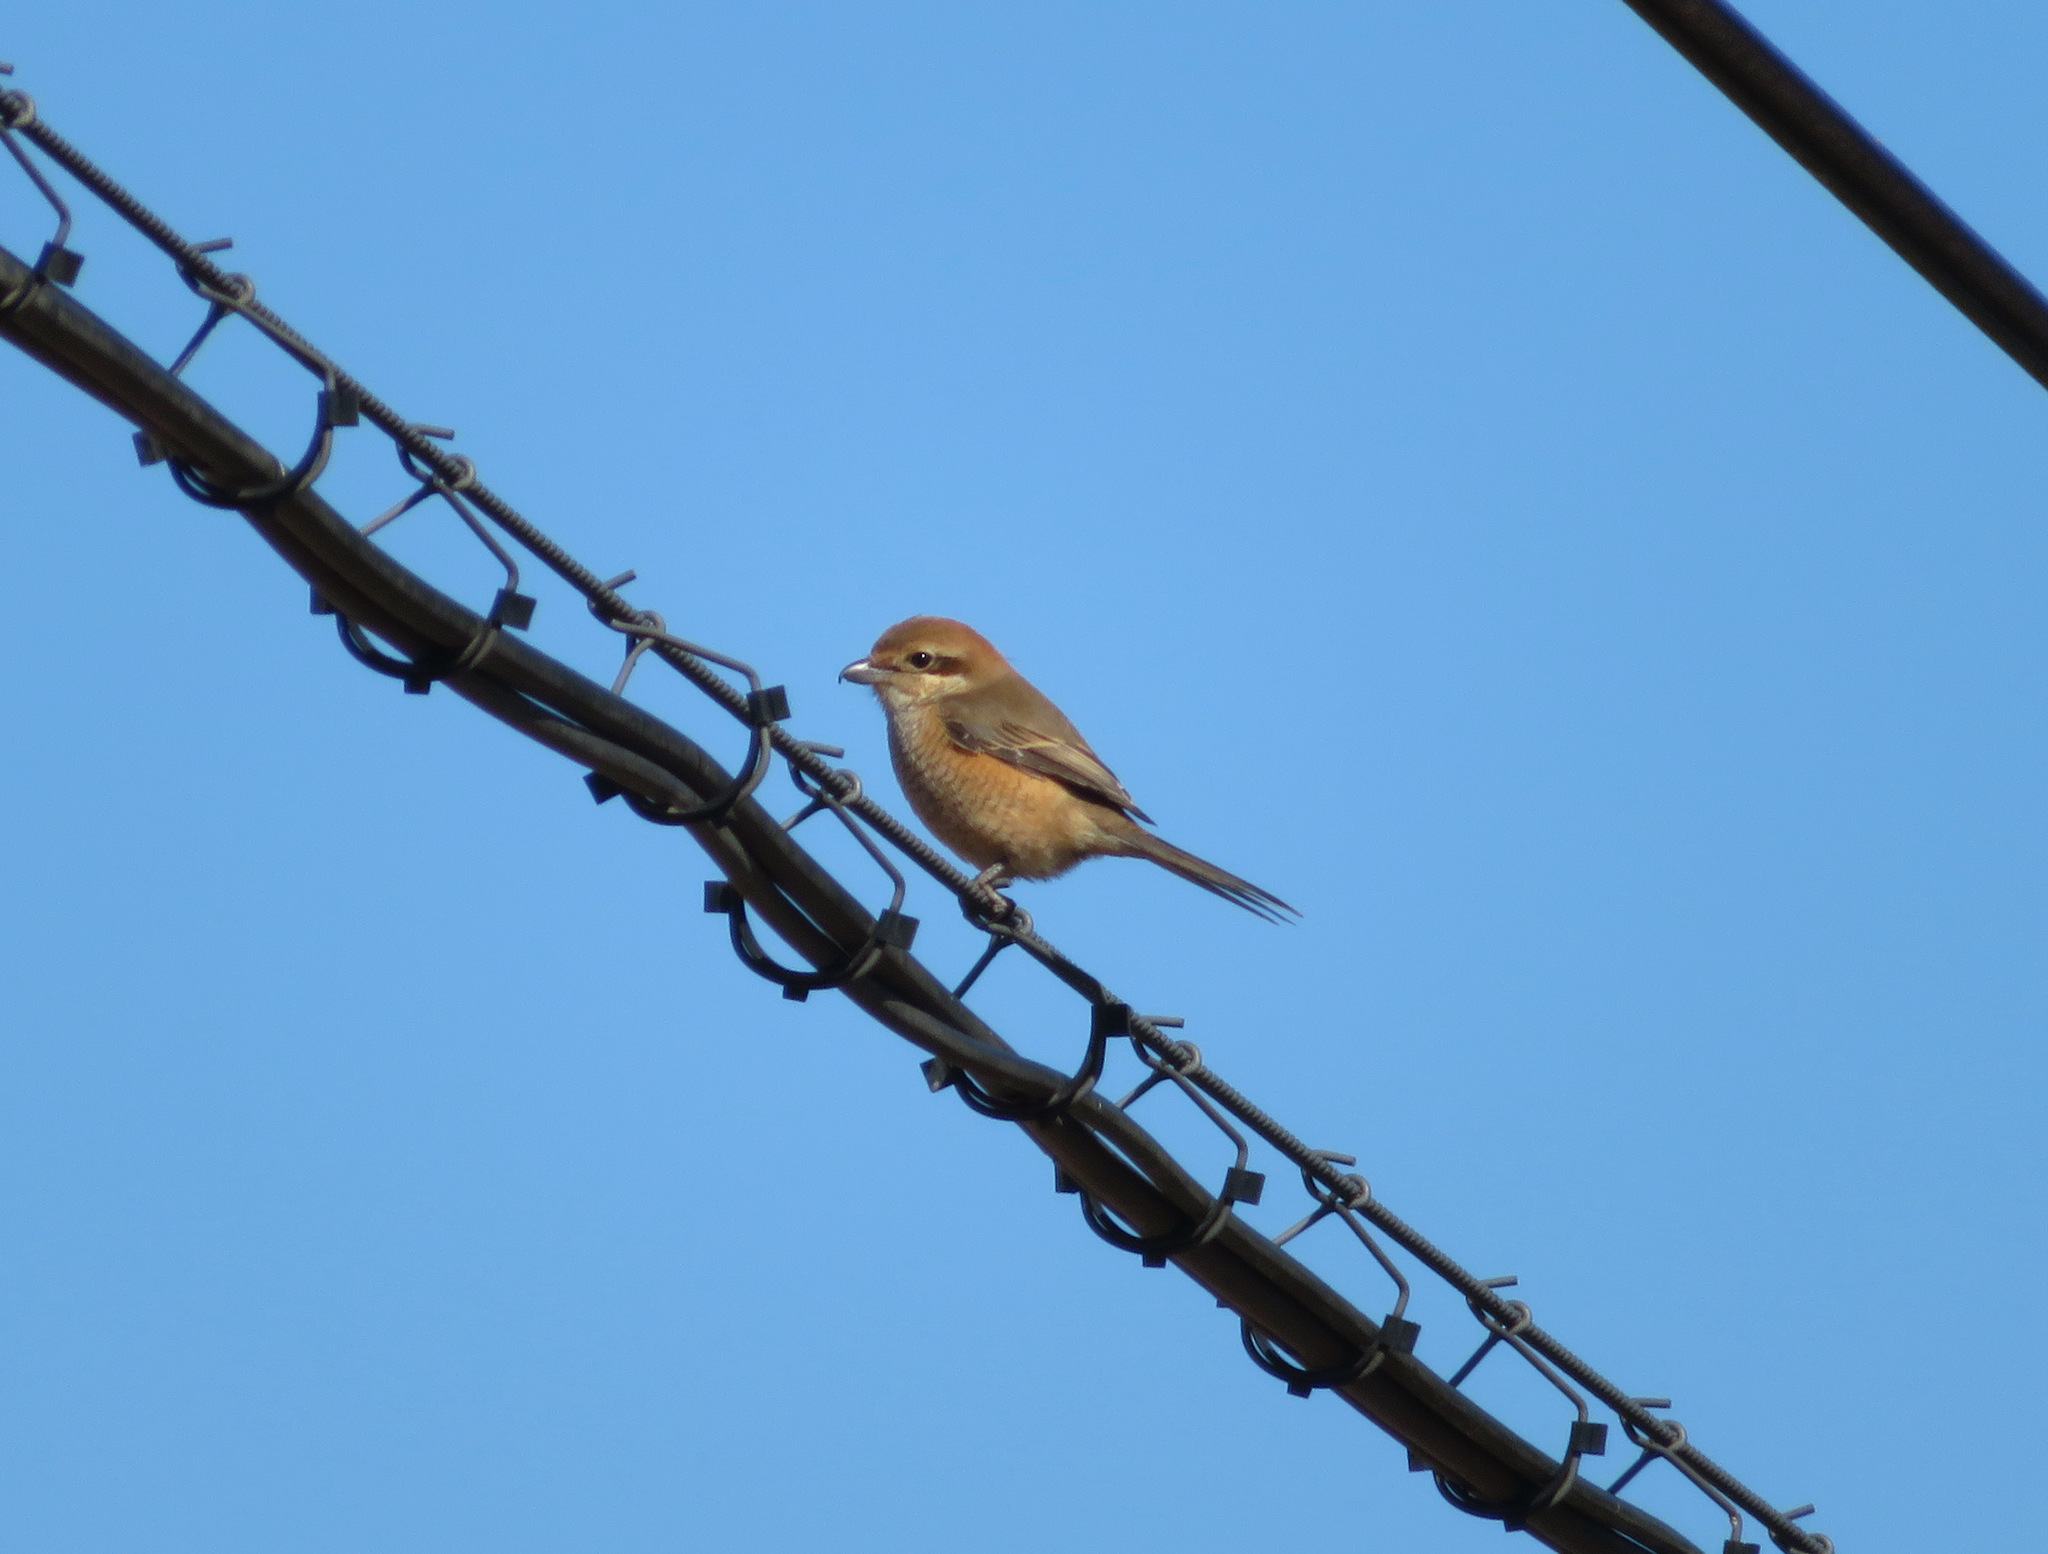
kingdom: Animalia
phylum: Chordata
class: Aves
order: Passeriformes
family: Laniidae
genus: Lanius
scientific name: Lanius bucephalus
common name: Bull-headed shrike
